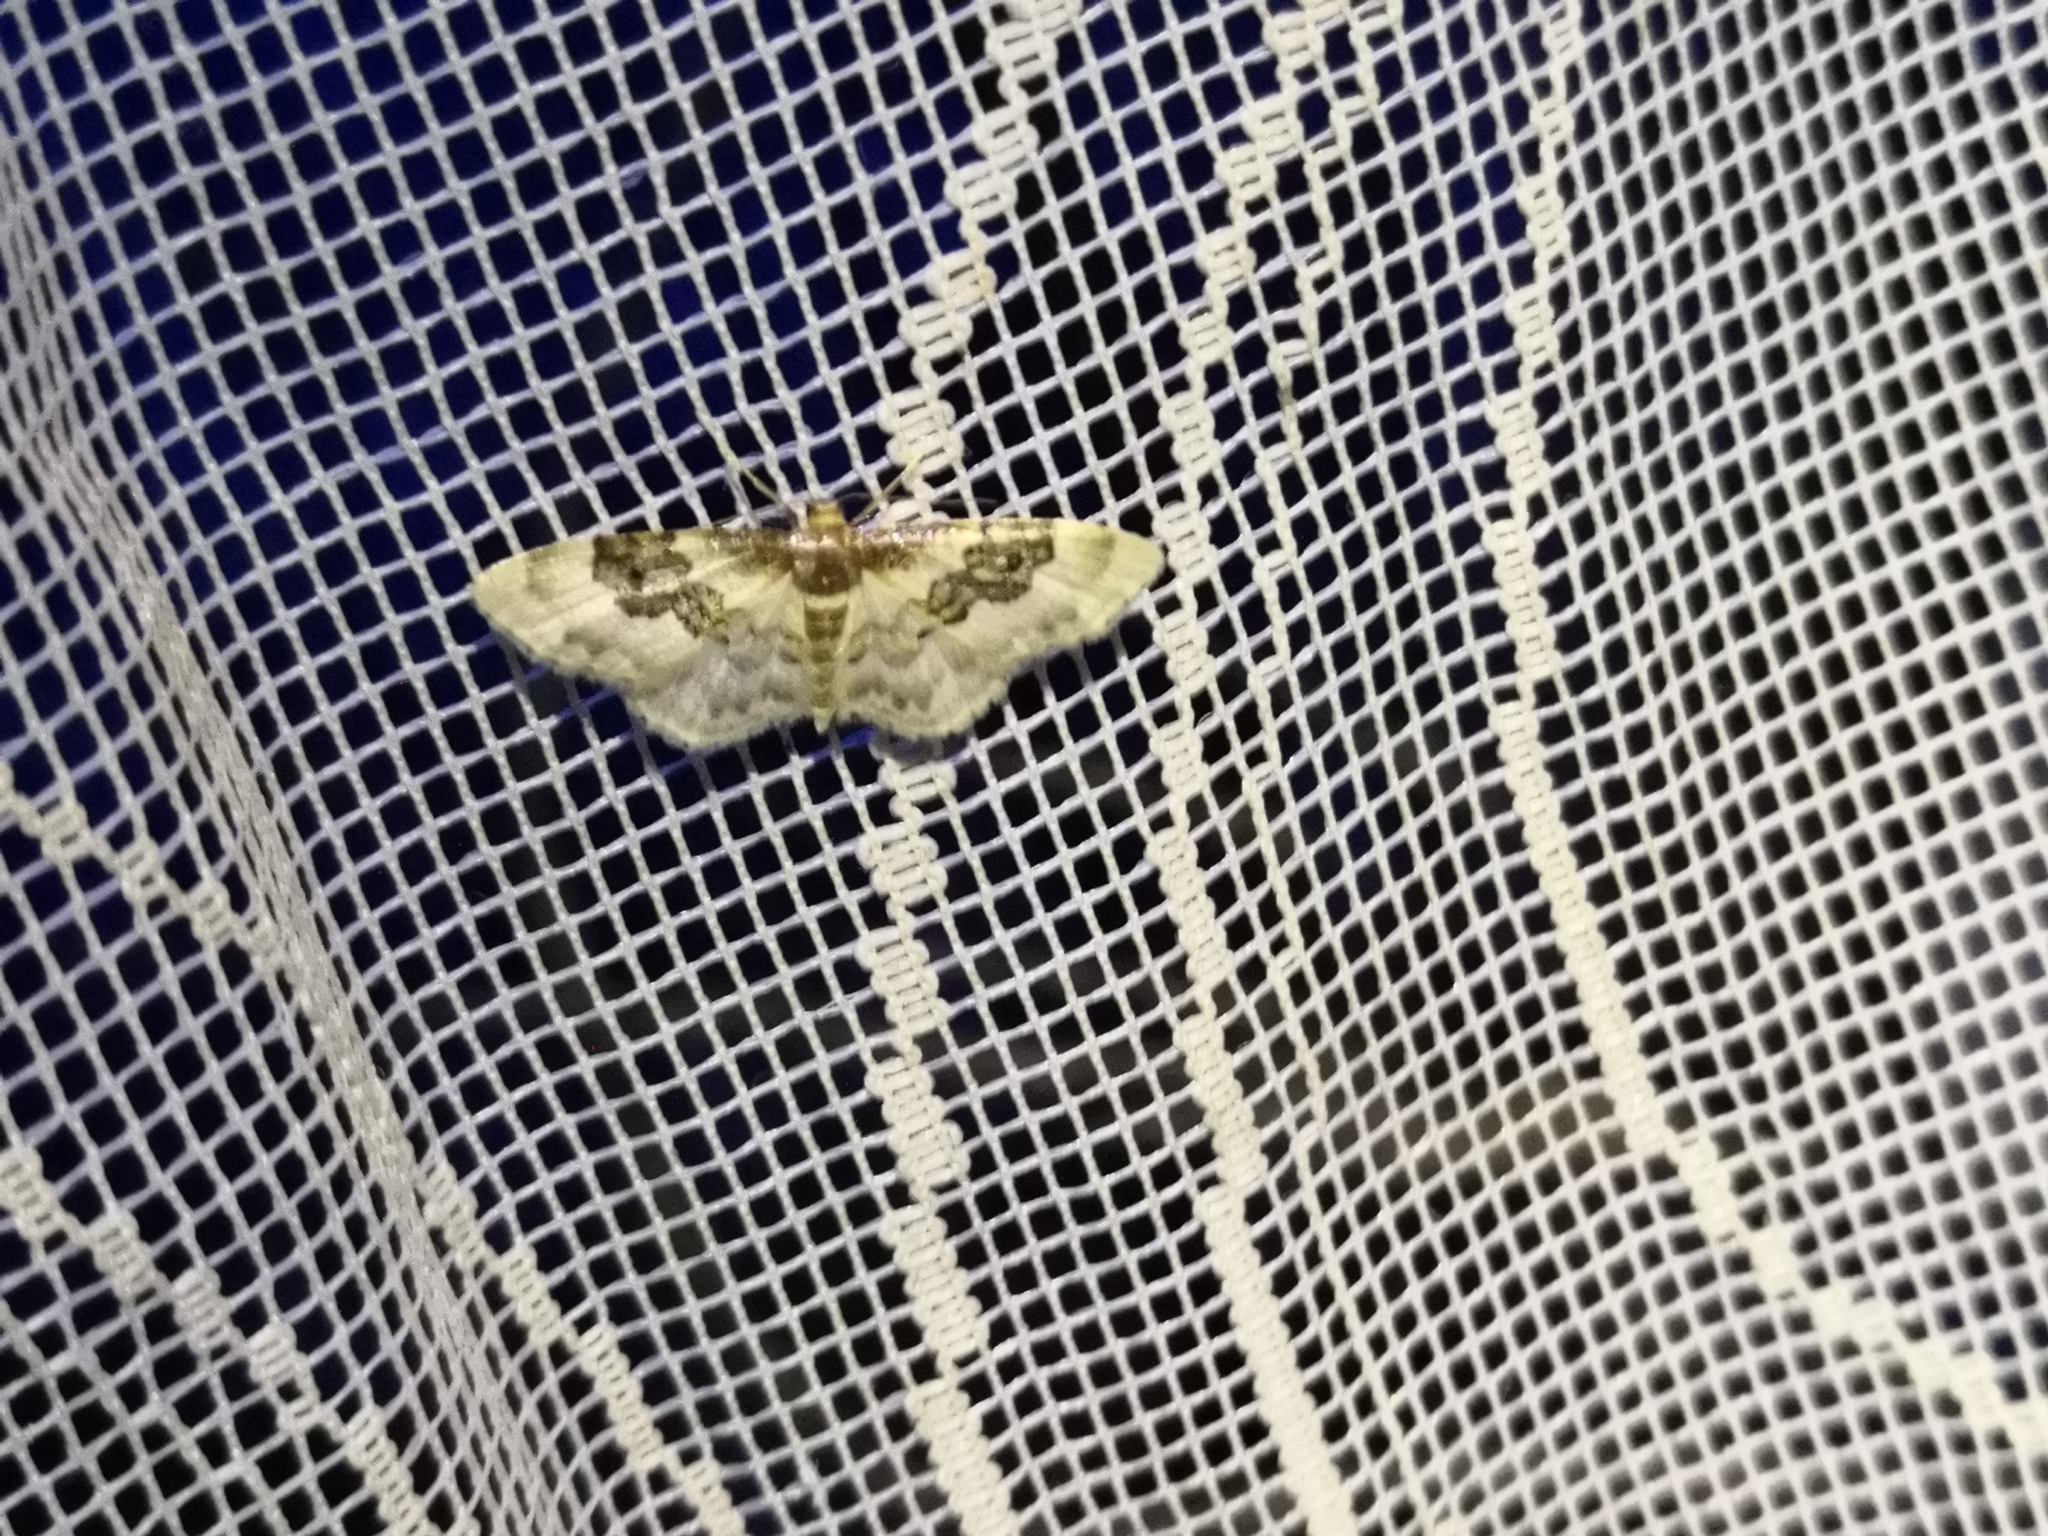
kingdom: Animalia
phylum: Arthropoda
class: Insecta
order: Lepidoptera
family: Geometridae
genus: Idaea
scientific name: Idaea rusticata
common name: Least carpet
